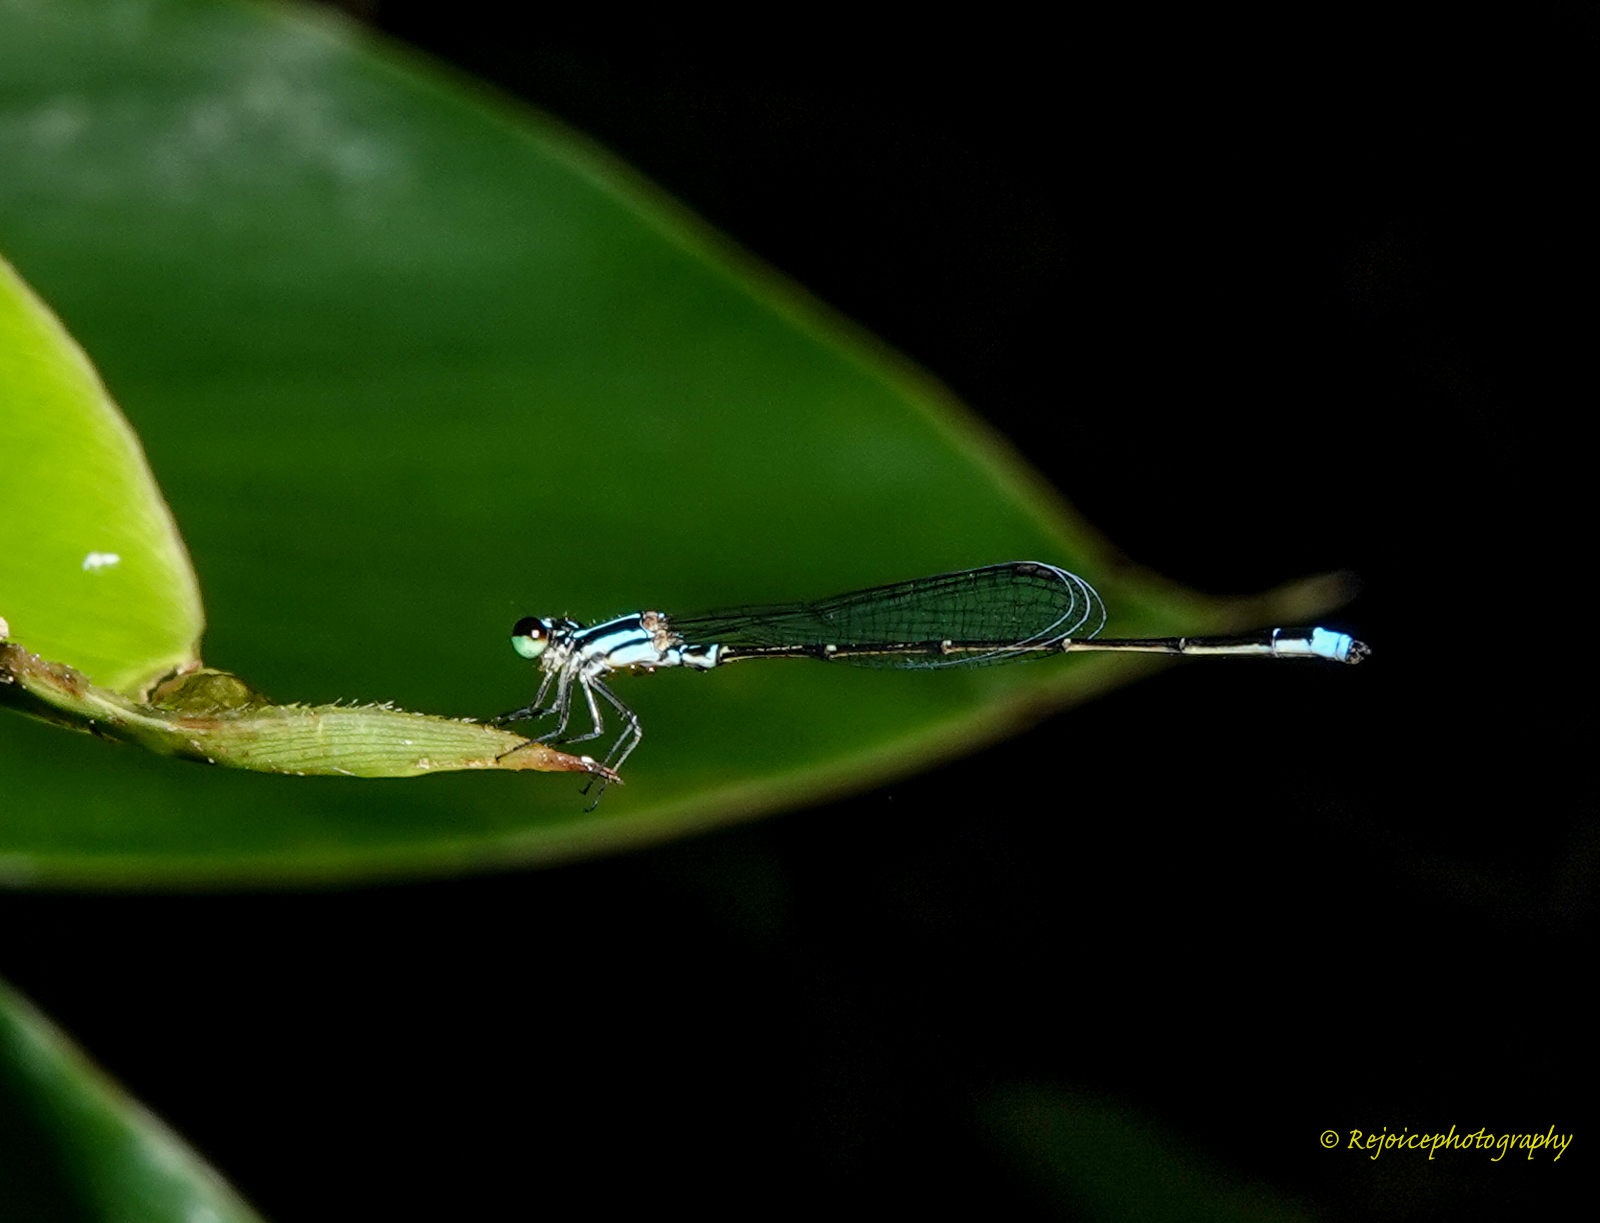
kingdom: Animalia
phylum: Arthropoda
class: Insecta
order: Odonata
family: Coenagrionidae
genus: Mortonagrion
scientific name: Mortonagrion aborense
